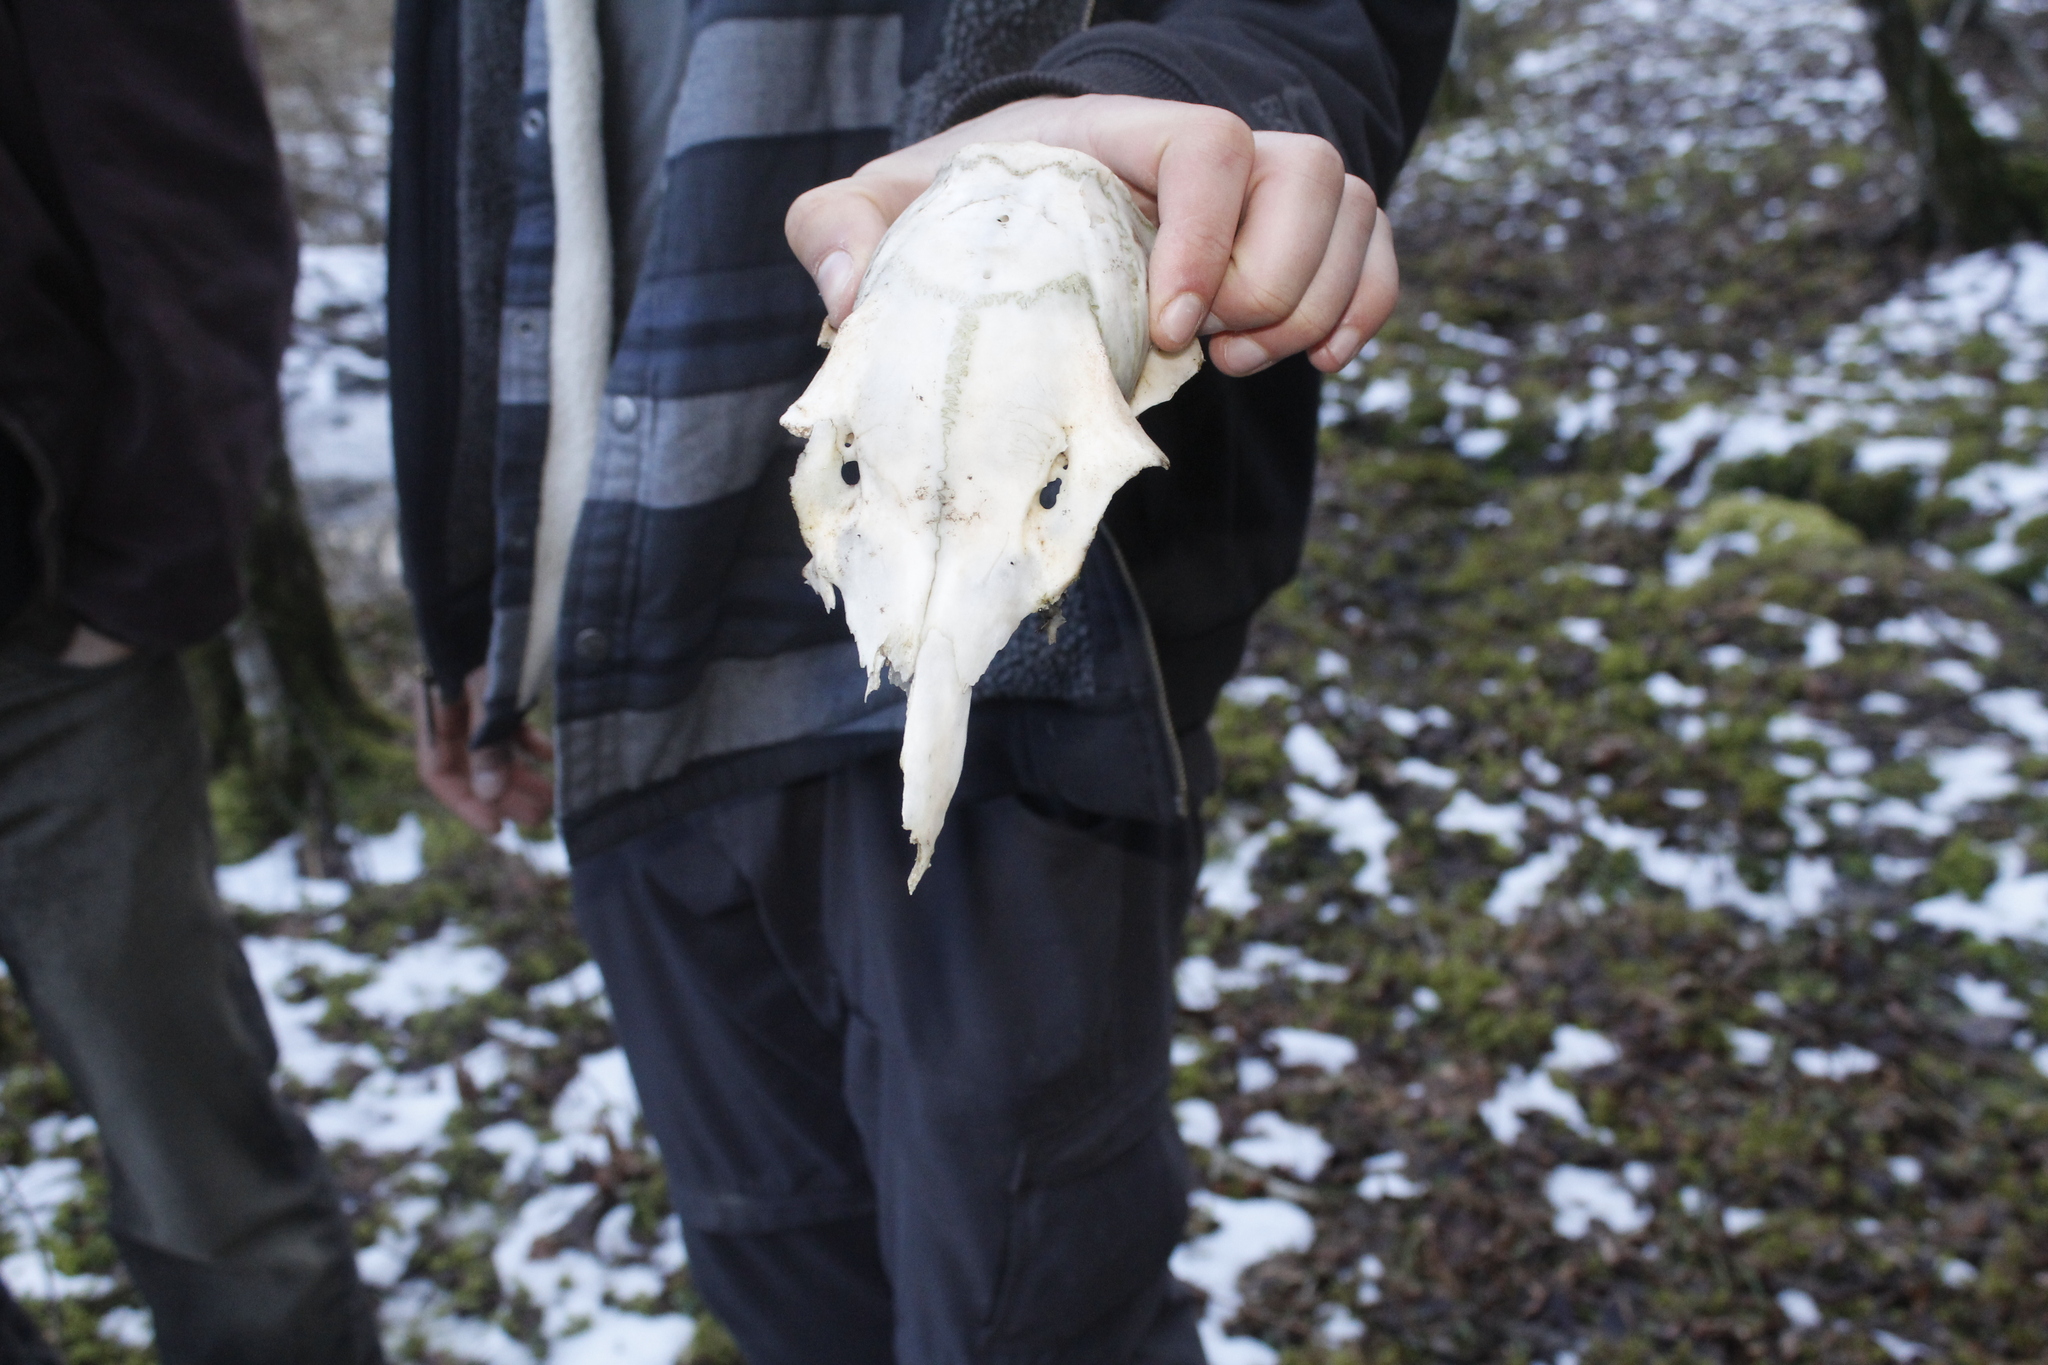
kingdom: Animalia
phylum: Chordata
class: Mammalia
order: Artiodactyla
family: Cervidae
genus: Odocoileus
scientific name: Odocoileus virginianus
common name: White-tailed deer
